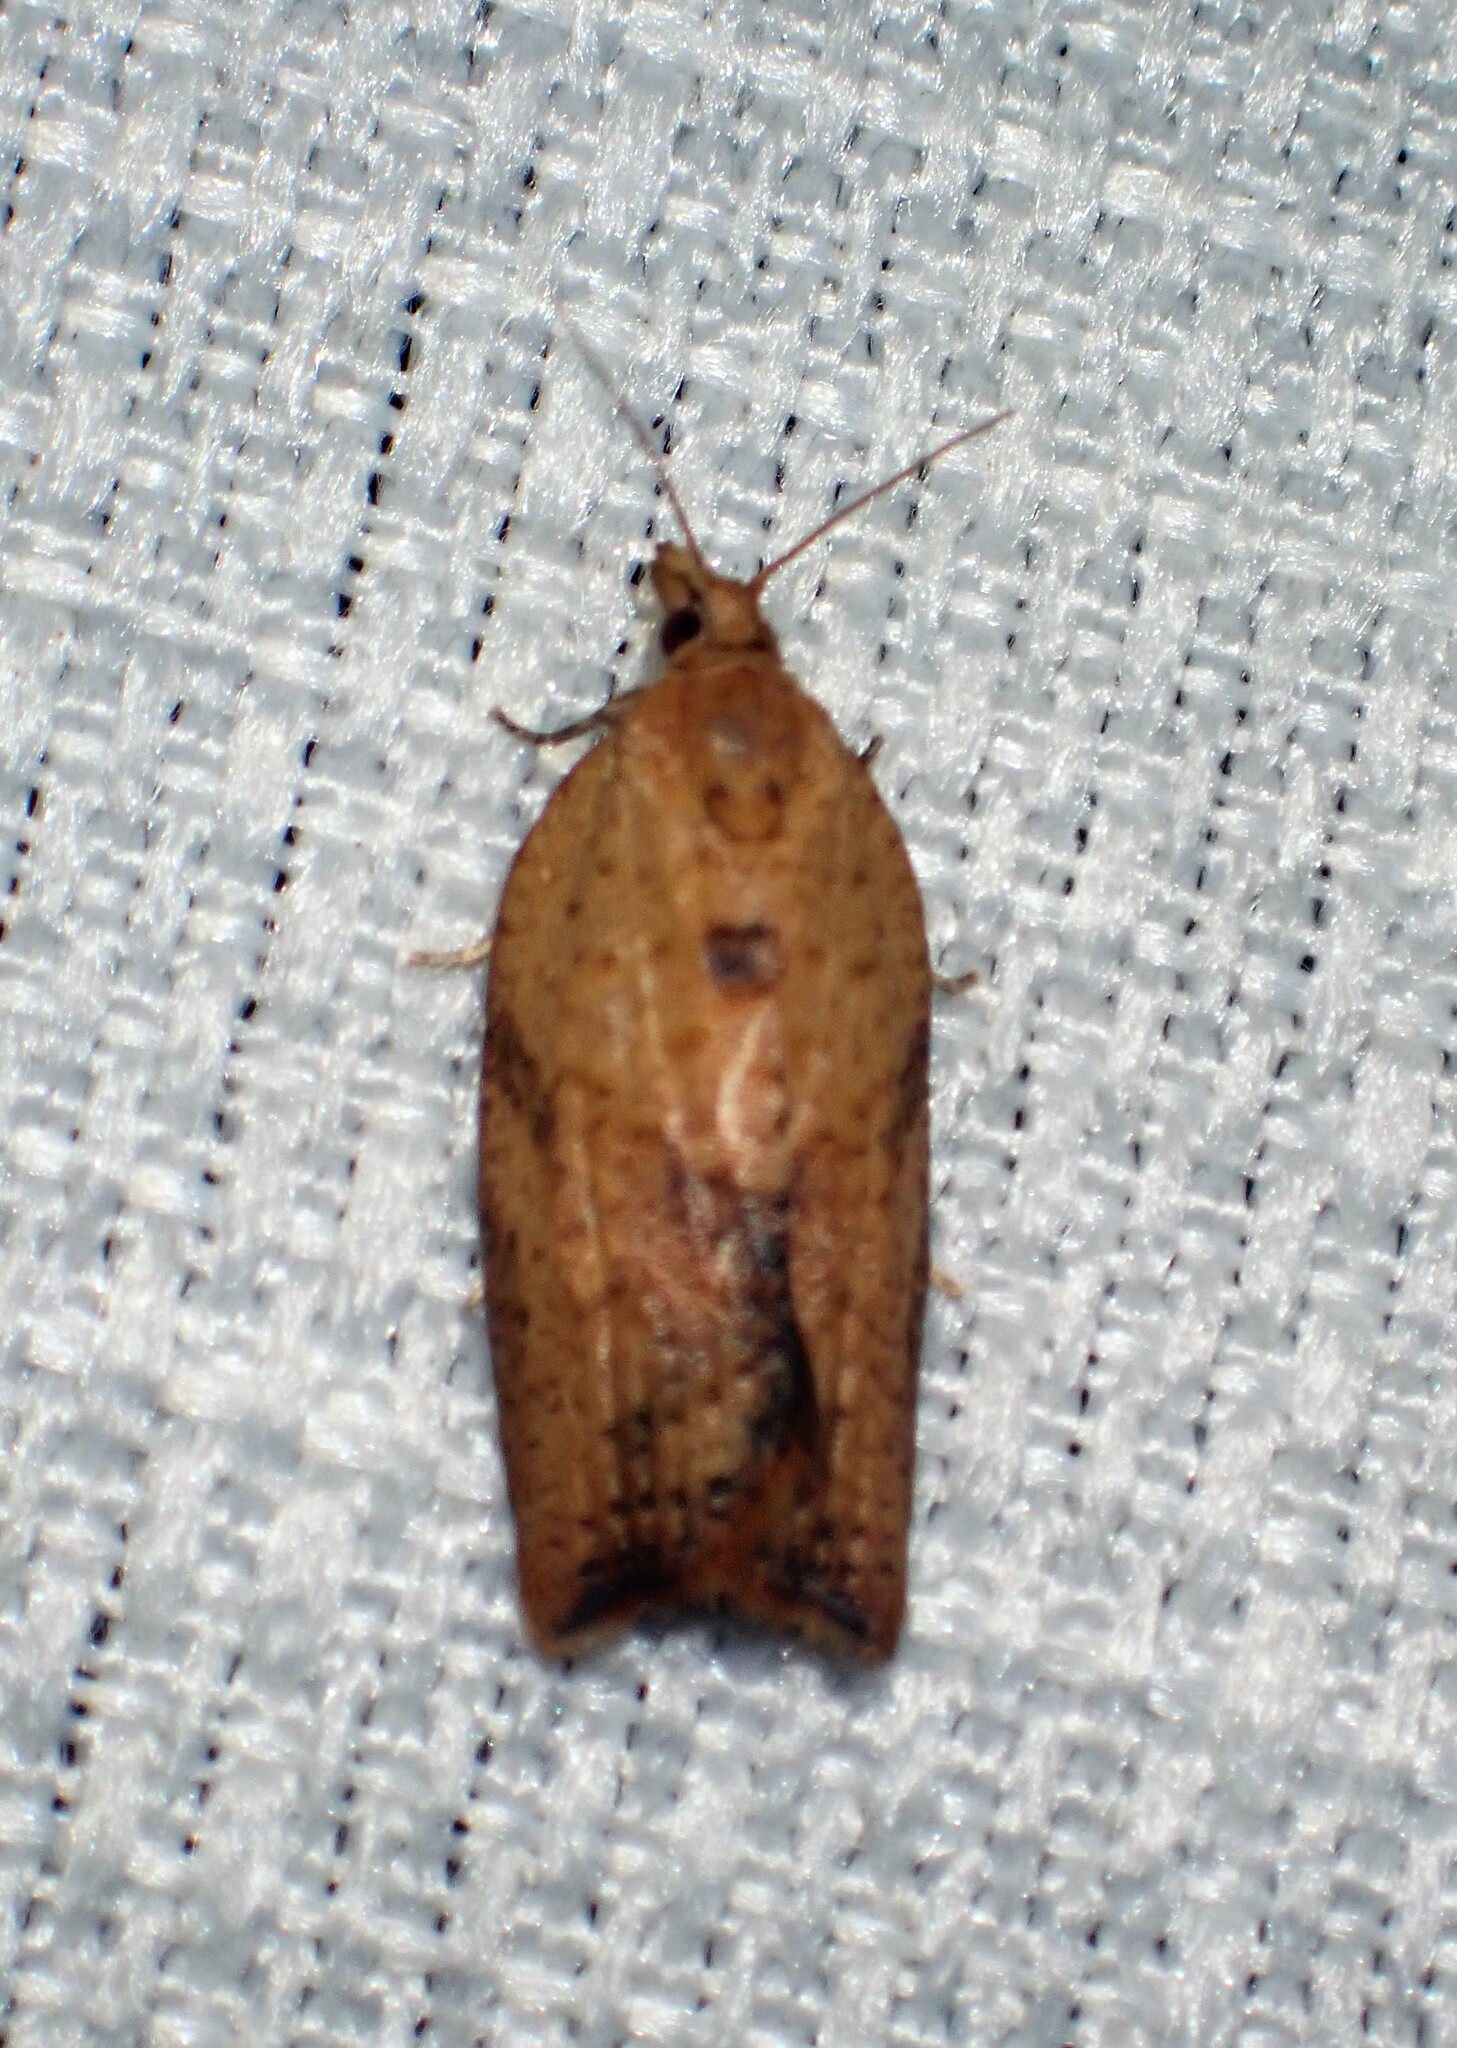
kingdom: Animalia
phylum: Arthropoda
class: Insecta
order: Lepidoptera
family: Tortricidae
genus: Epiphyas
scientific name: Epiphyas postvittana
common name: Light brown apple moth
